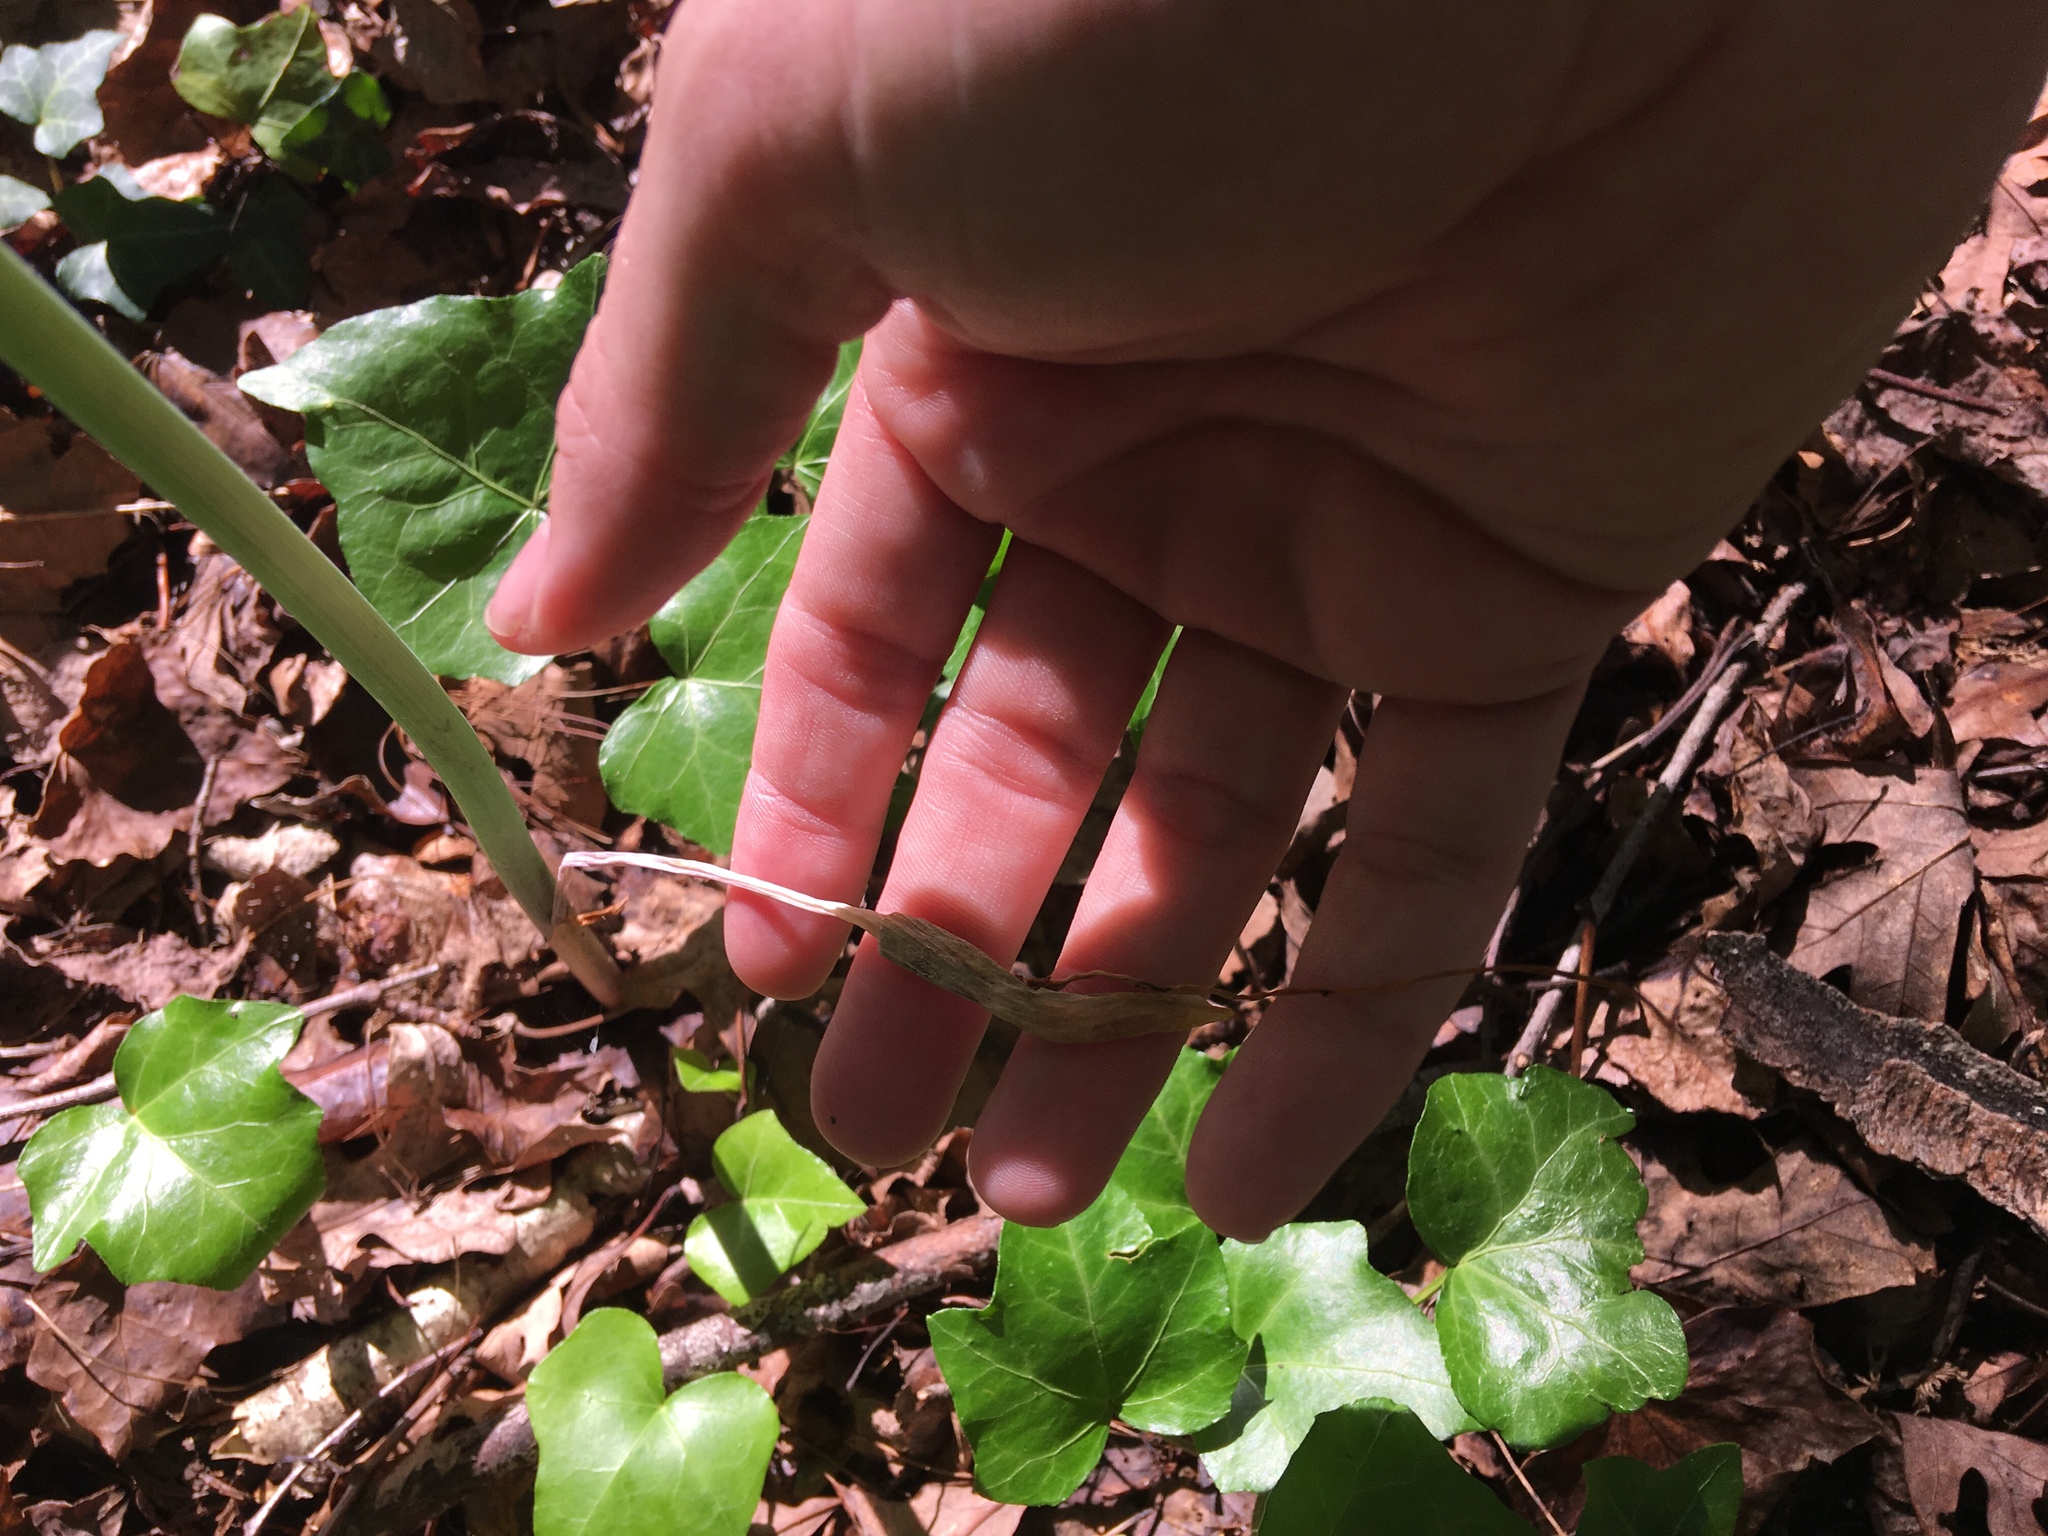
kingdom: Plantae
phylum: Tracheophyta
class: Liliopsida
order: Alismatales
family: Araceae
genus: Arisaema
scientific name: Arisaema dracontium
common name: Dragon-arum
